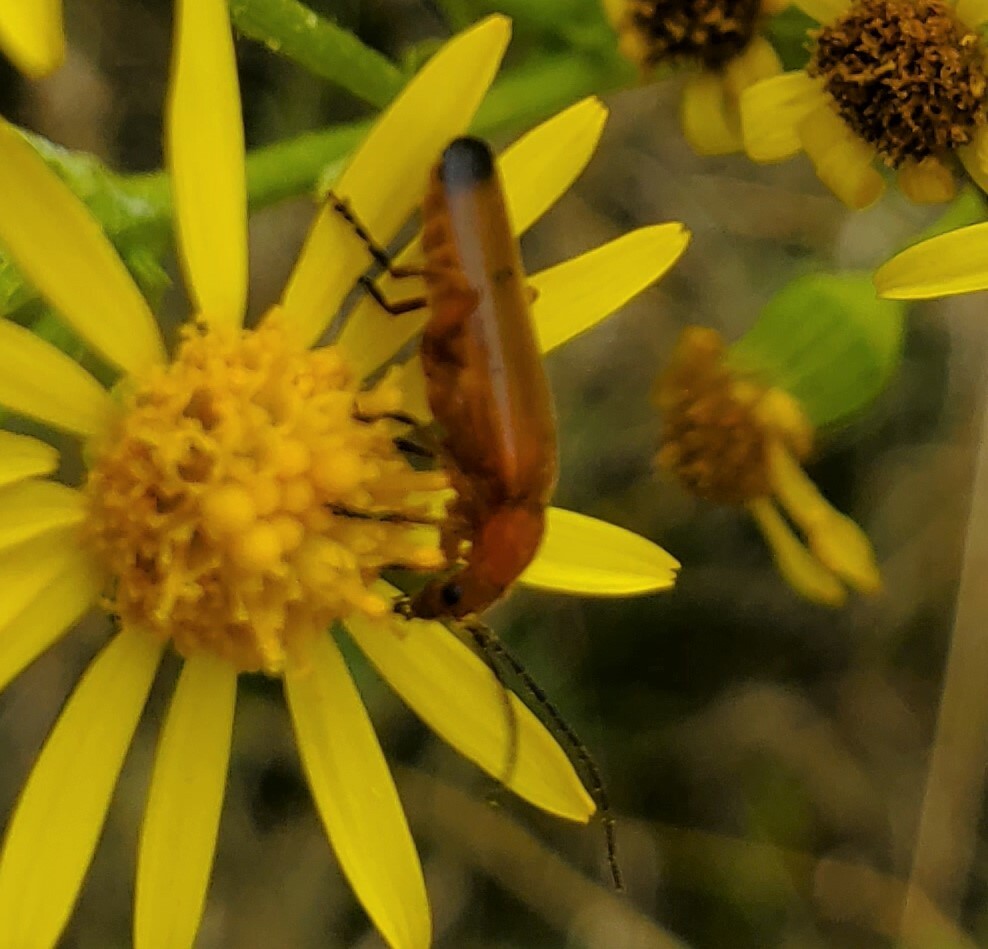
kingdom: Animalia
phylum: Arthropoda
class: Insecta
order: Coleoptera
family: Cantharidae
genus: Rhagonycha
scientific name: Rhagonycha fulva
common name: Common red soldier beetle
